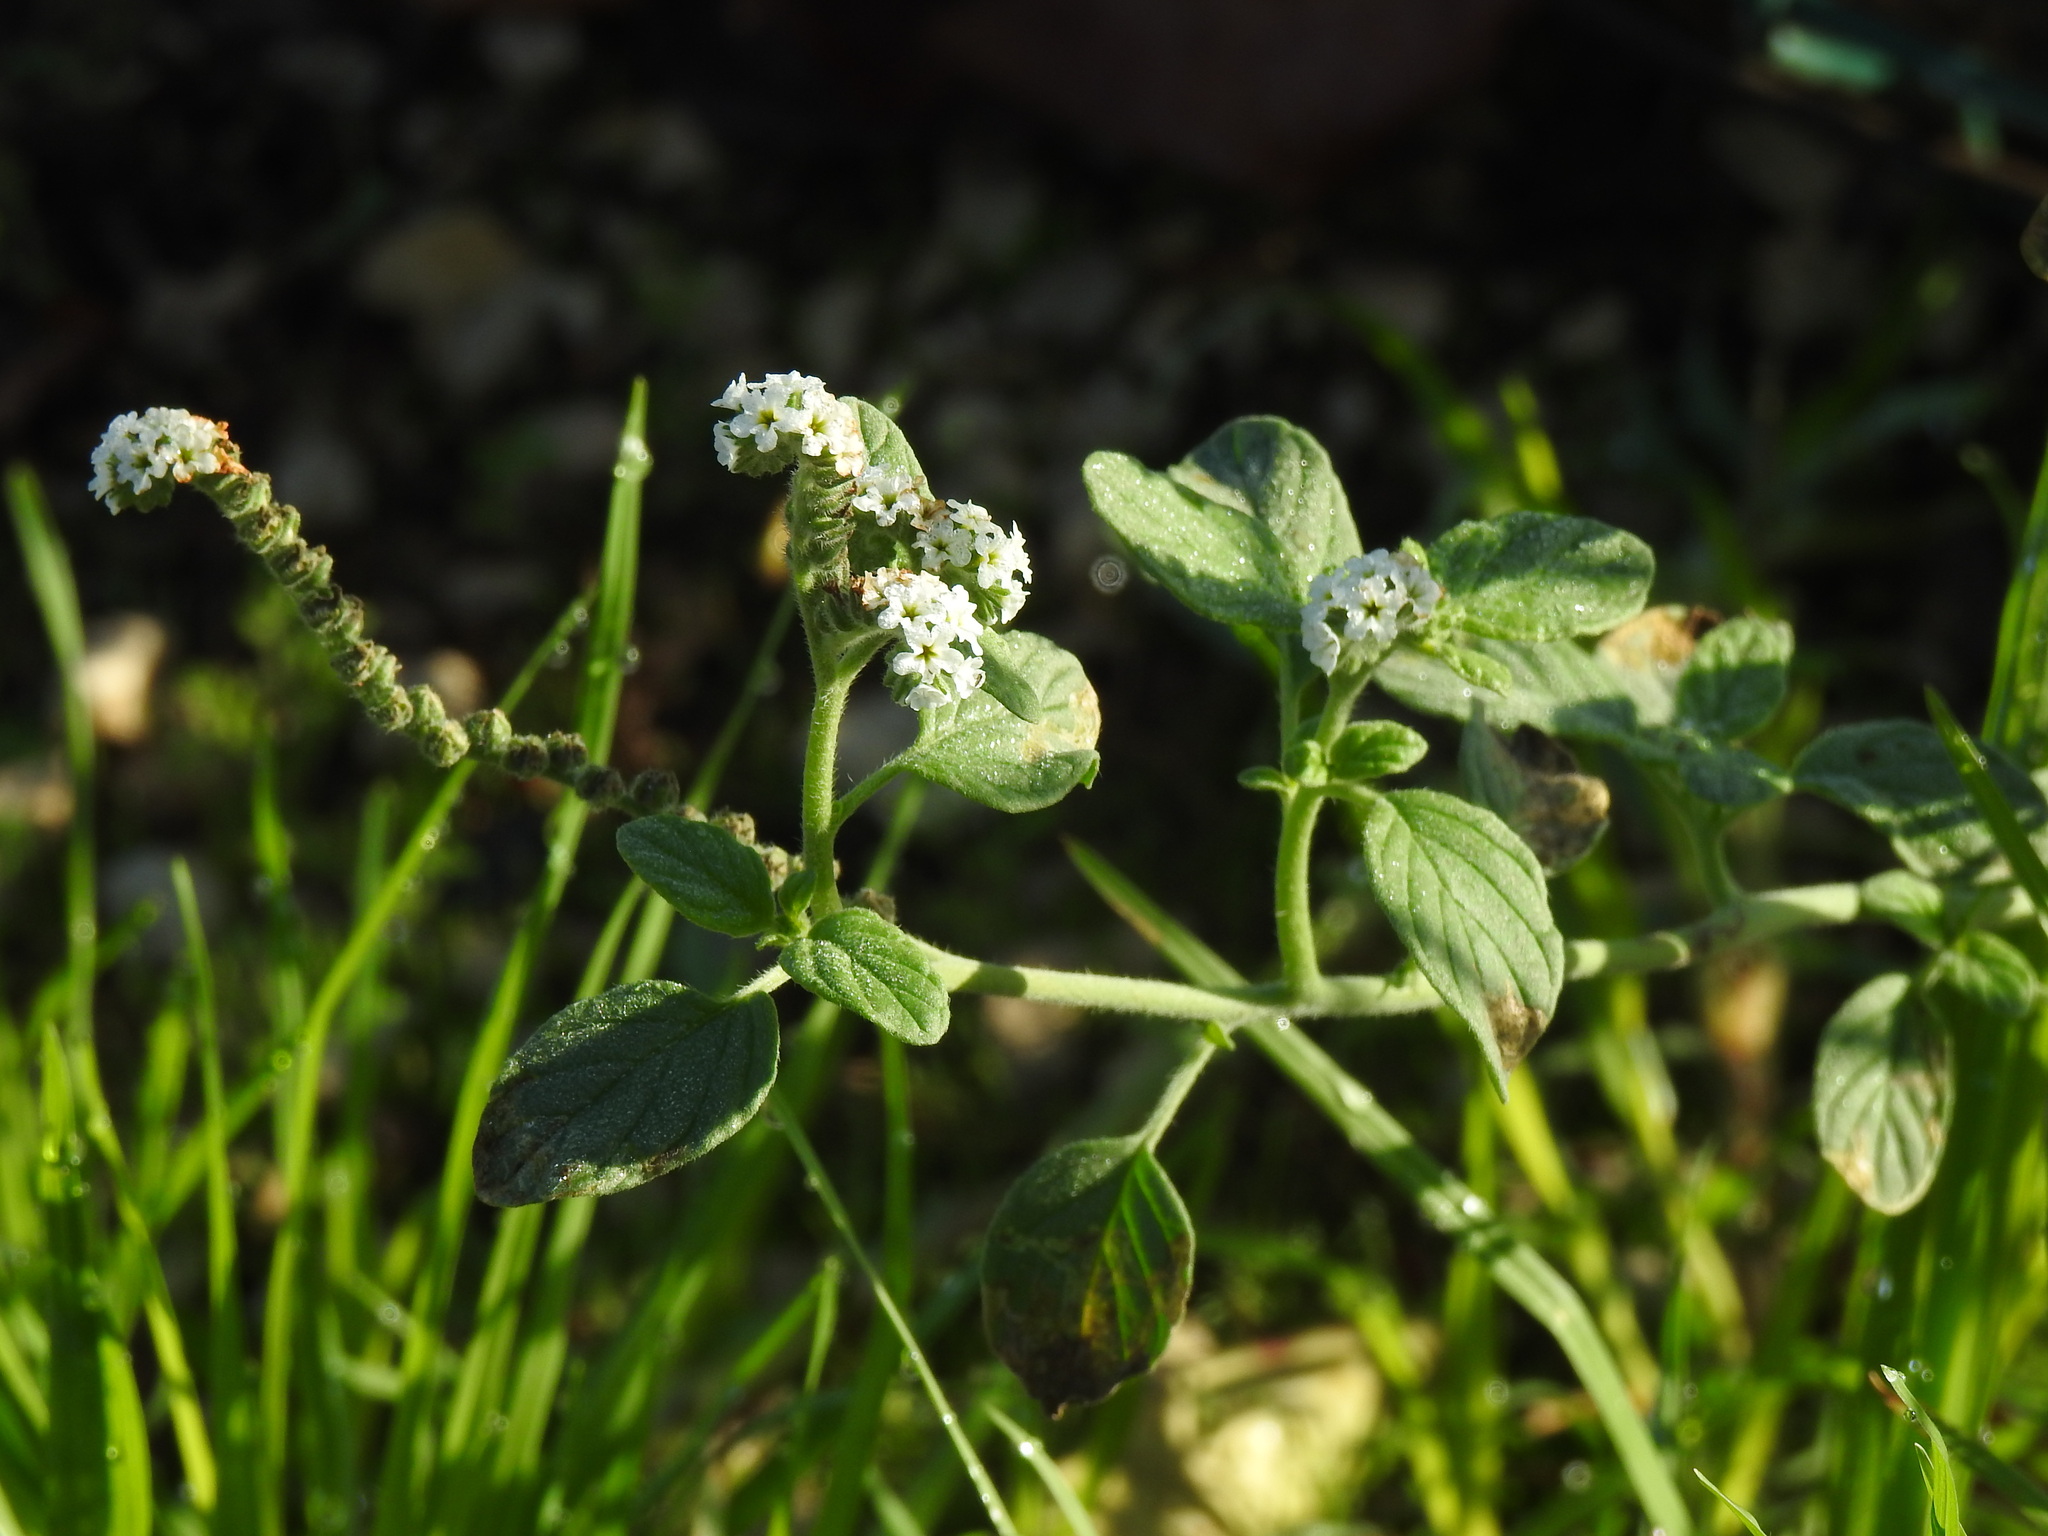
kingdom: Plantae
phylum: Tracheophyta
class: Magnoliopsida
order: Boraginales
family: Heliotropiaceae
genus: Heliotropium
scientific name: Heliotropium europaeum
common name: European heliotrope
